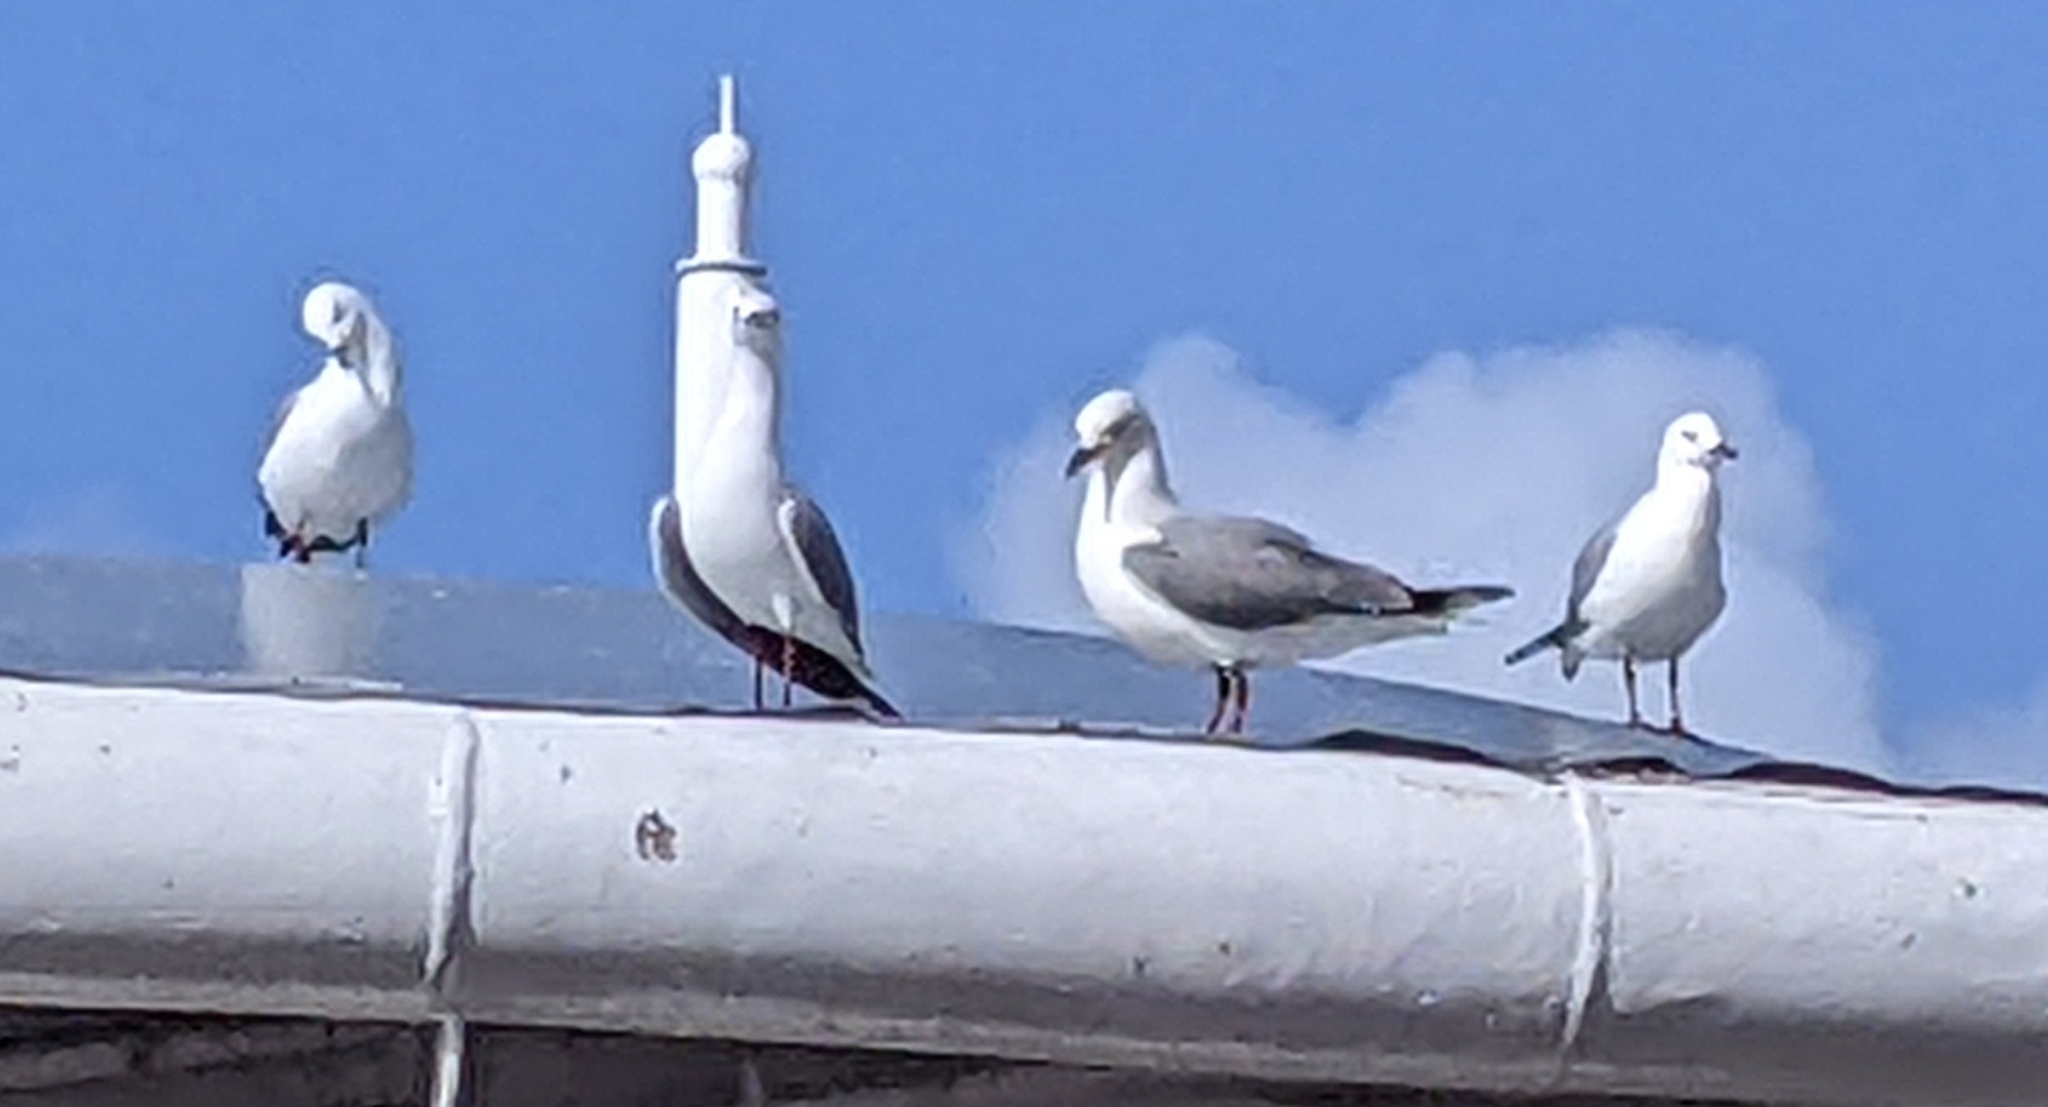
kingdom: Animalia
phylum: Chordata
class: Aves
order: Charadriiformes
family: Laridae
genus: Chroicocephalus
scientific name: Chroicocephalus hartlaubii
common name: Hartlaub's gull
